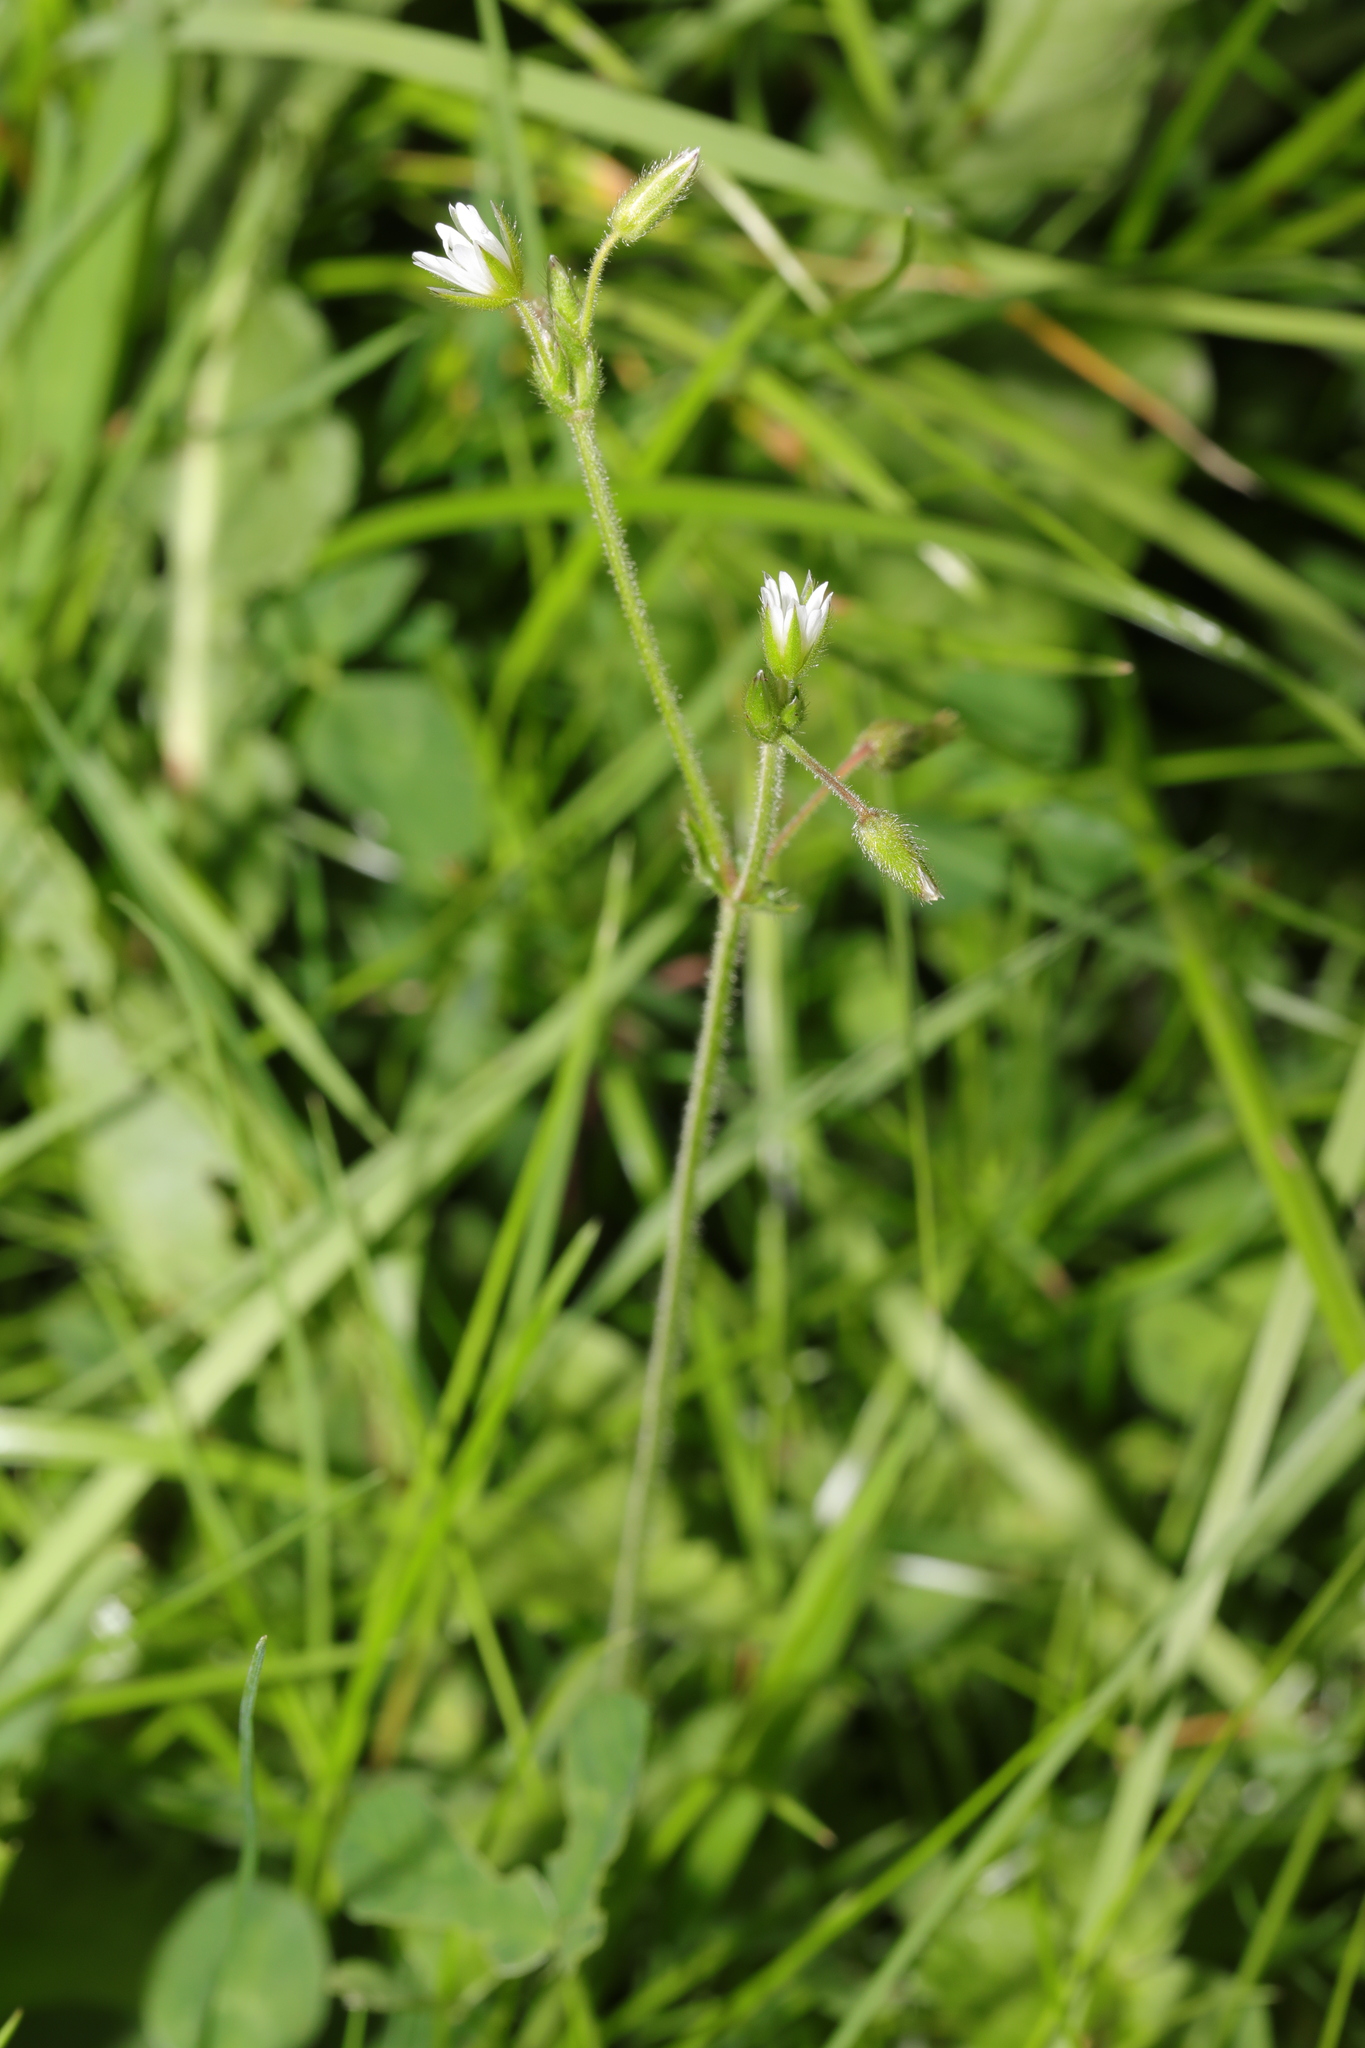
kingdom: Plantae
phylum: Tracheophyta
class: Magnoliopsida
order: Caryophyllales
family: Caryophyllaceae
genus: Cerastium
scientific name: Cerastium fontanum
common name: Common mouse-ear
